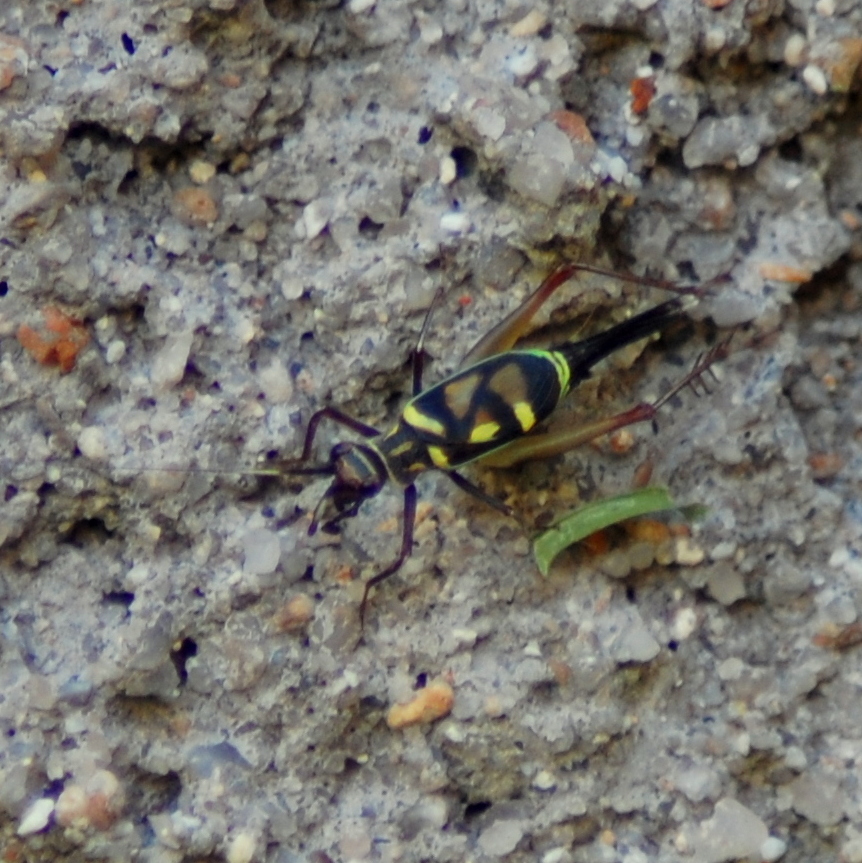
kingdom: Animalia
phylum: Arthropoda
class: Insecta
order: Orthoptera
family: Trigonidiidae
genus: Phylloscyrtus
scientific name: Phylloscyrtus amoenus
